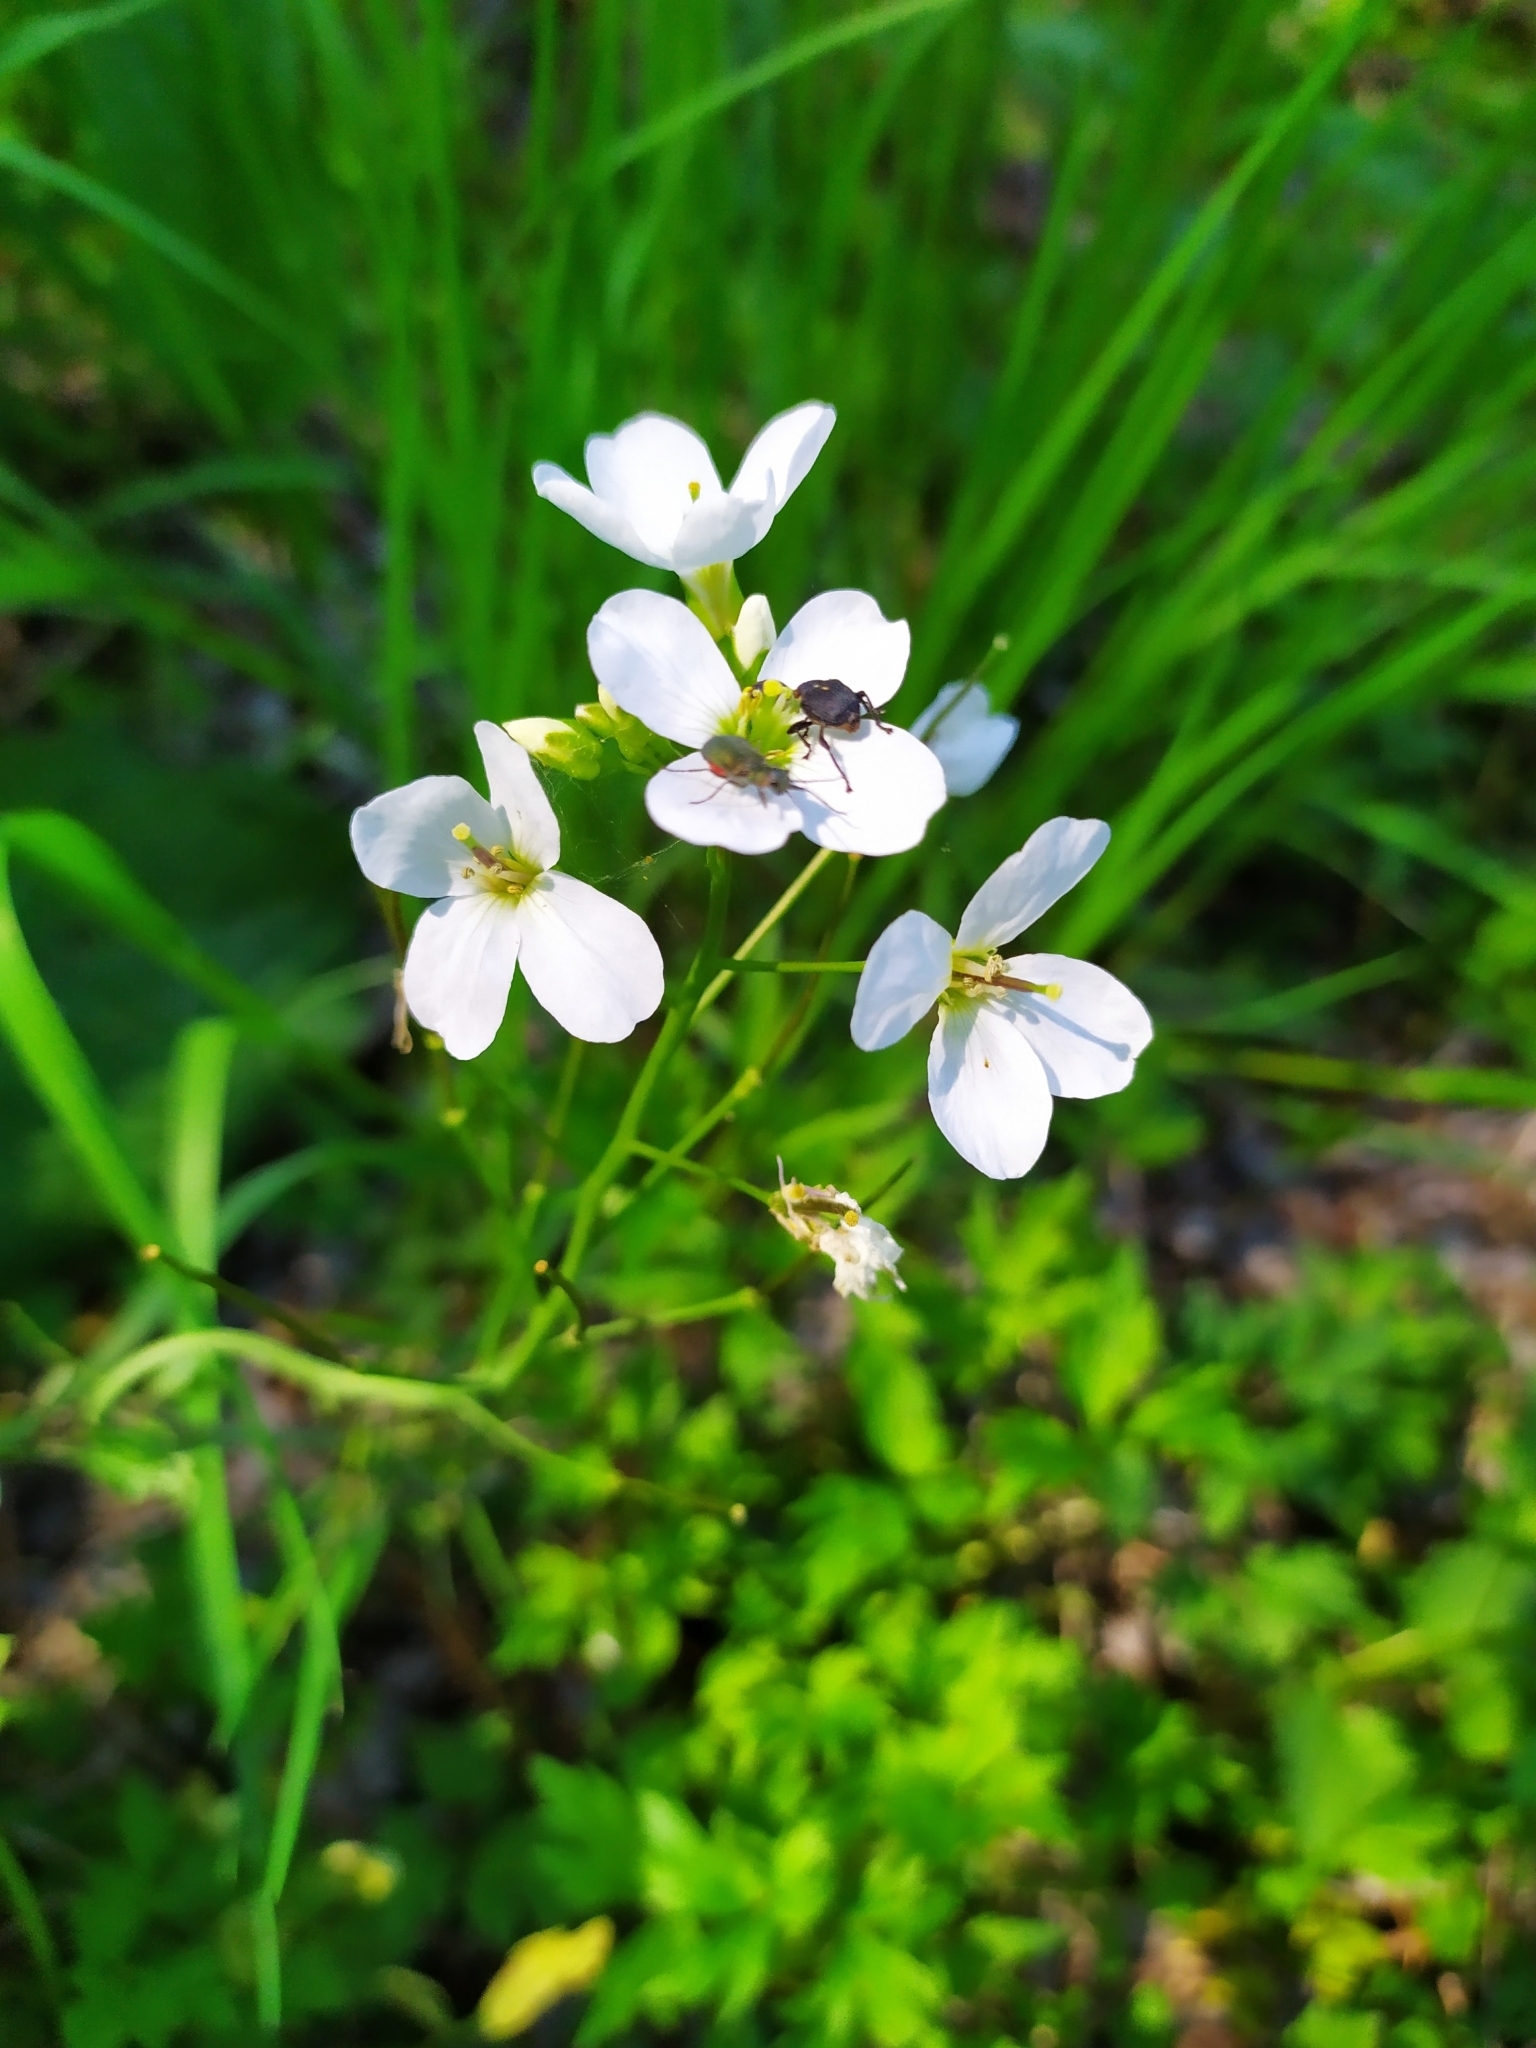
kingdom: Plantae
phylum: Tracheophyta
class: Magnoliopsida
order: Brassicales
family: Brassicaceae
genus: Cardamine
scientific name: Cardamine dentata
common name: Toothed bittercress
